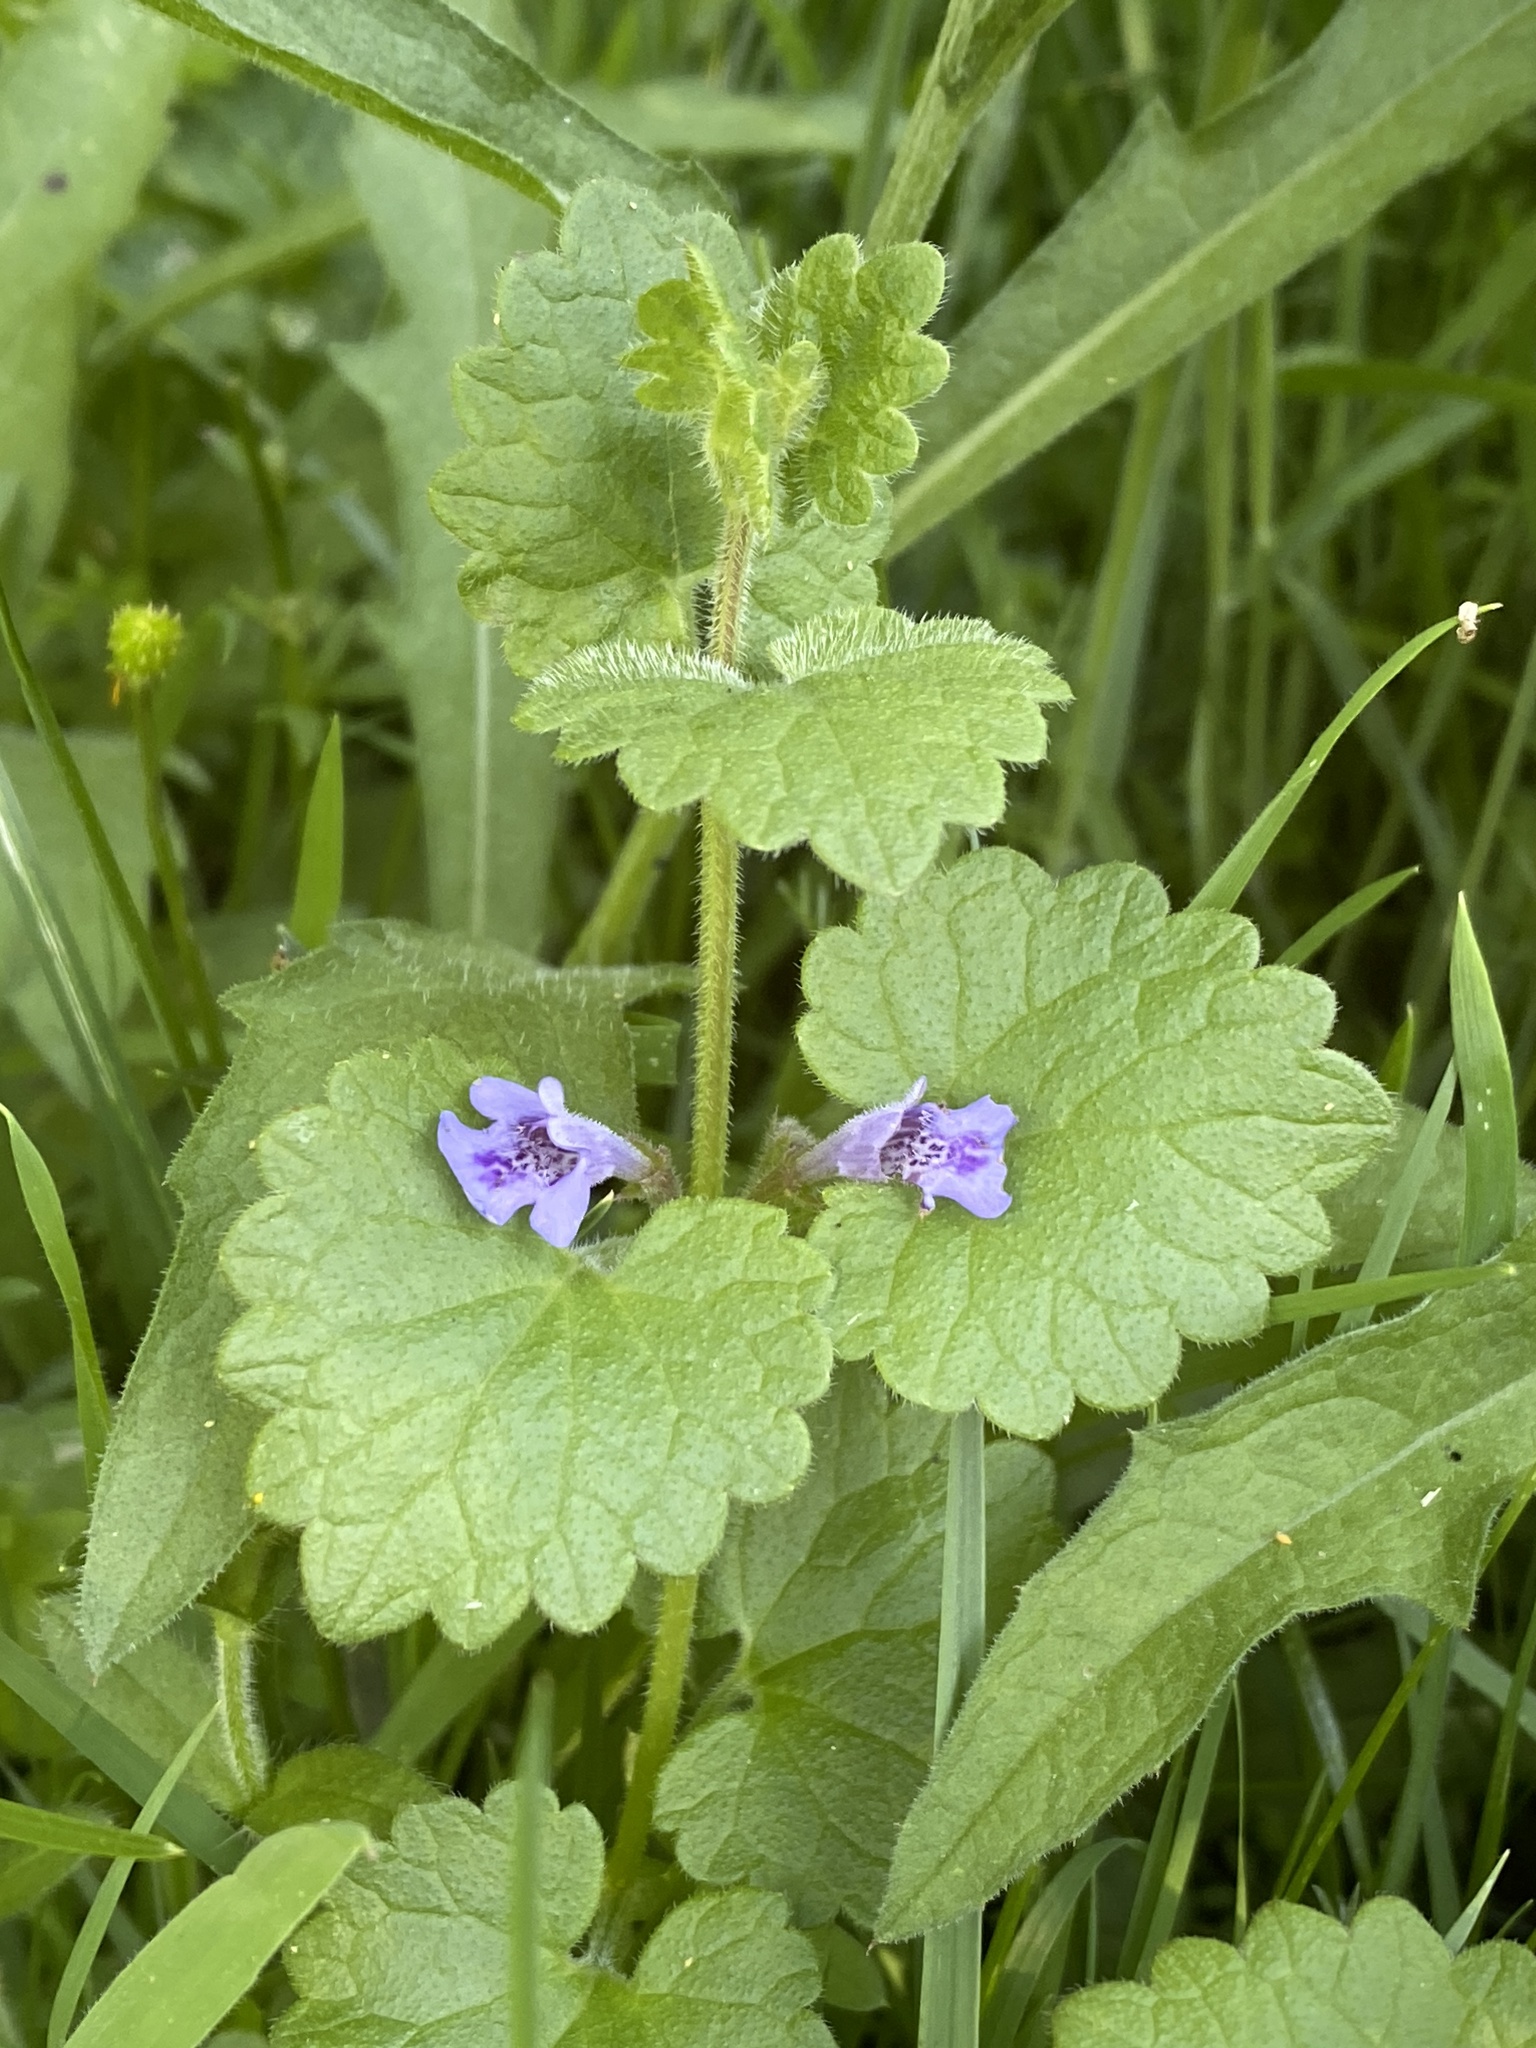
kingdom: Plantae
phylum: Tracheophyta
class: Magnoliopsida
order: Lamiales
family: Lamiaceae
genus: Glechoma
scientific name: Glechoma hederacea
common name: Ground ivy
